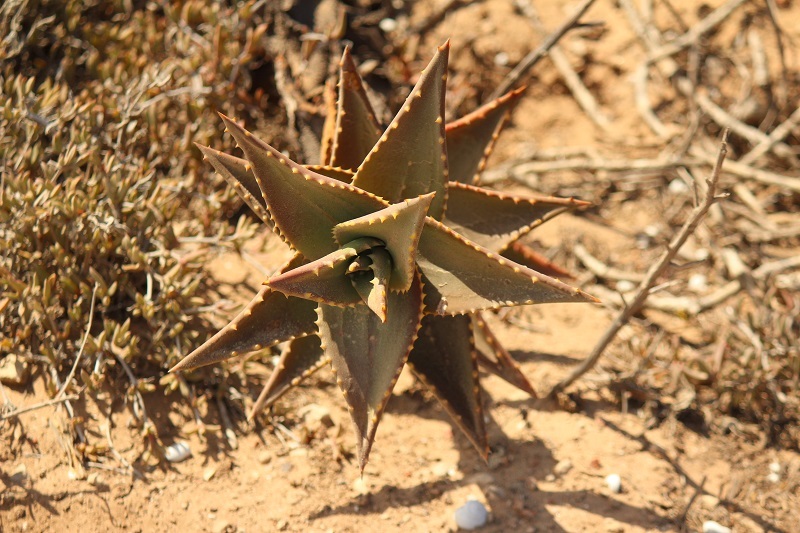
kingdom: Plantae
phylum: Tracheophyta
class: Liliopsida
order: Asparagales
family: Asphodelaceae
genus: Aloe
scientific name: Aloe distans
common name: Short-leaved aloe
